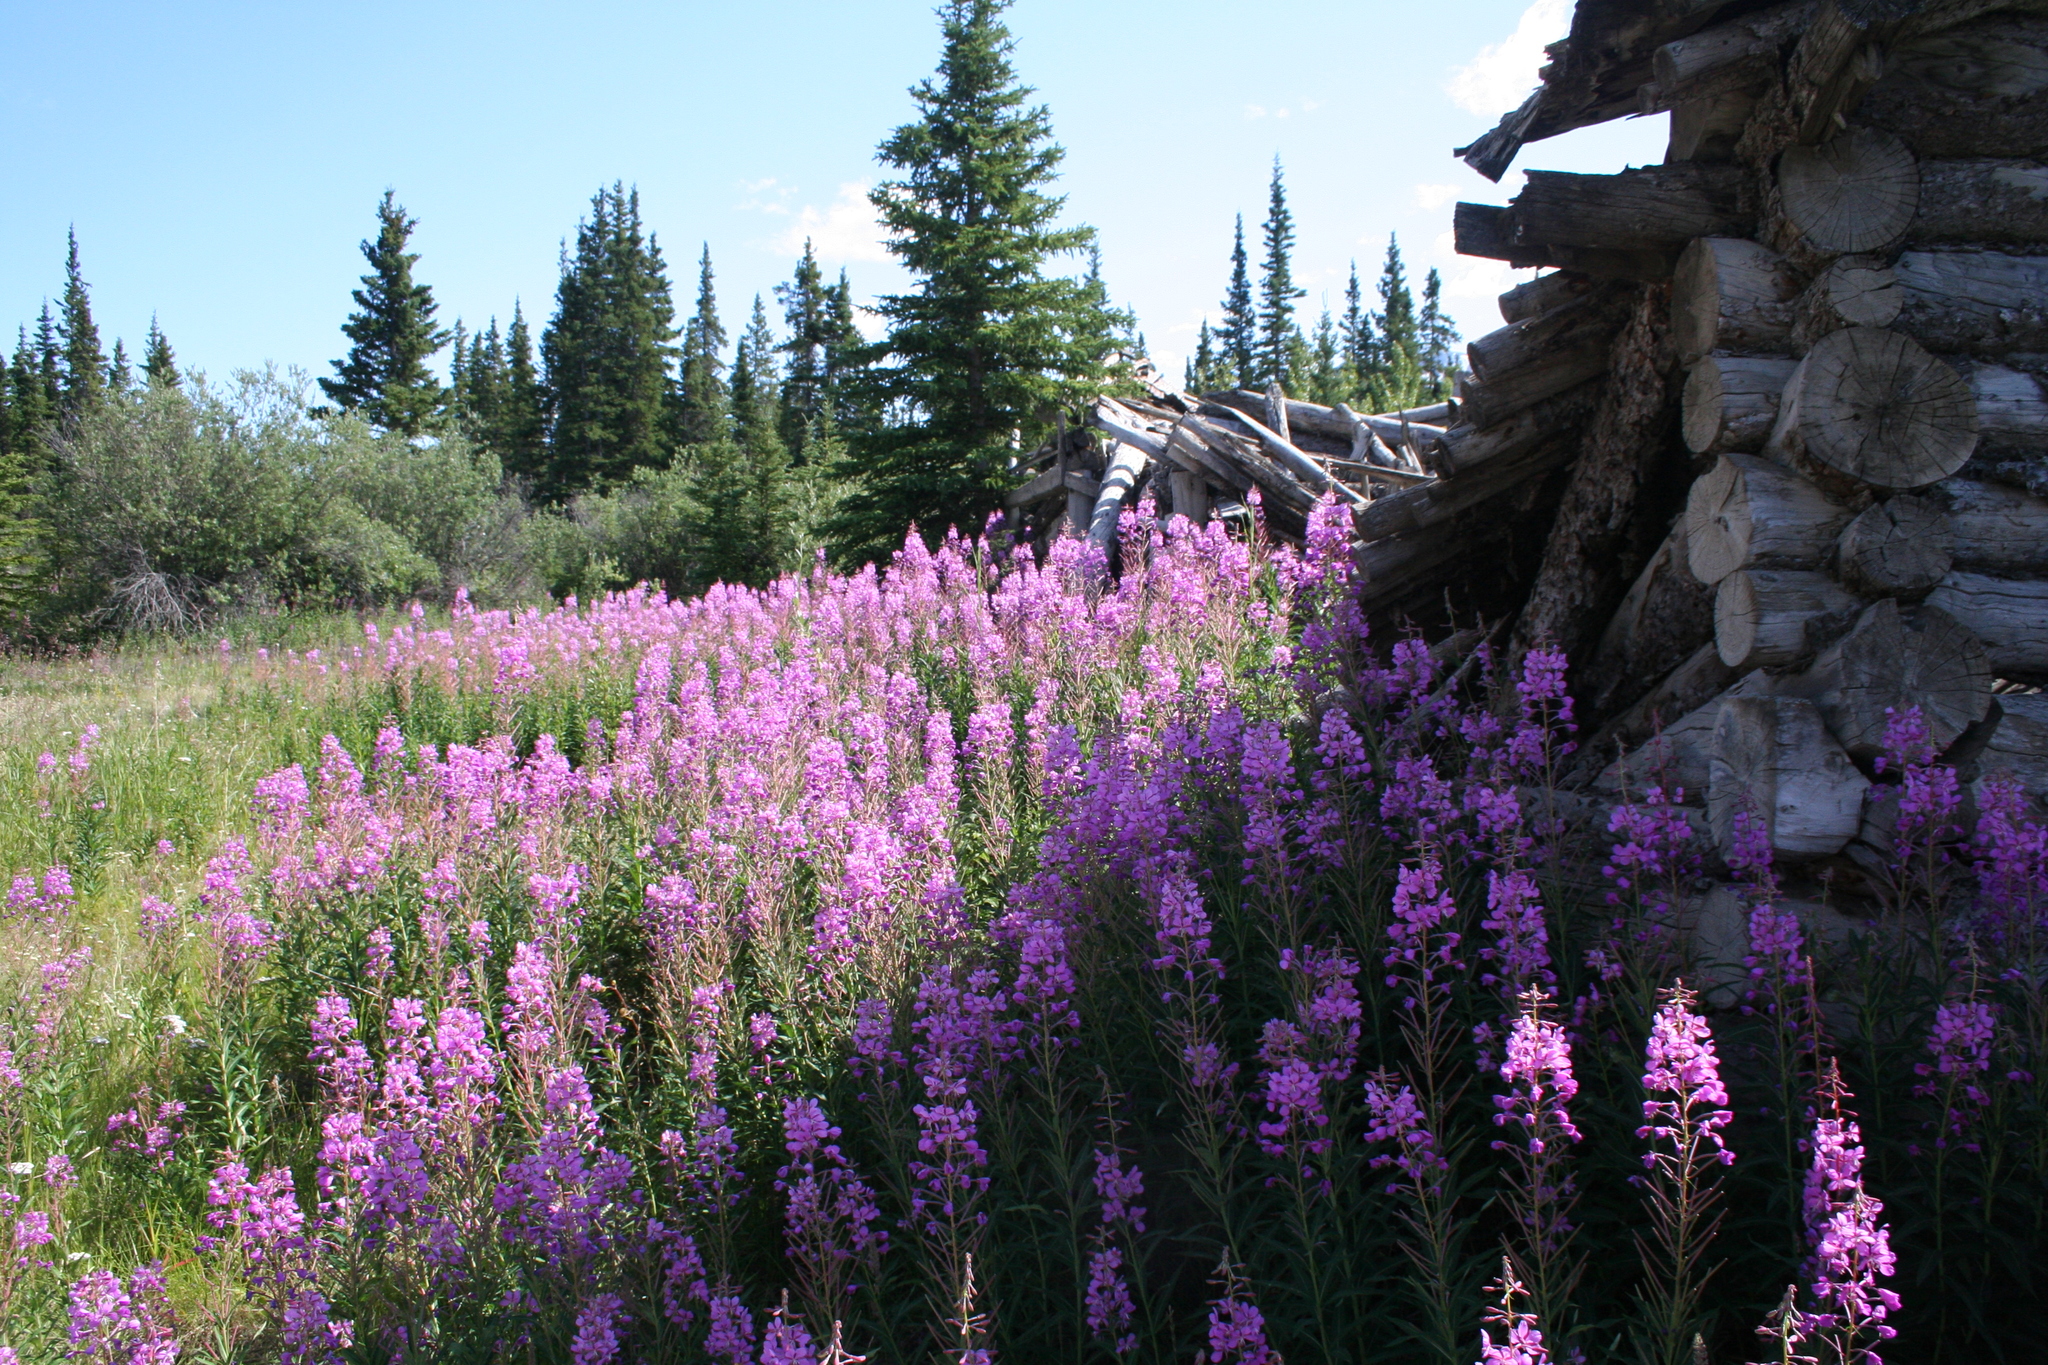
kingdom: Plantae
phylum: Tracheophyta
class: Magnoliopsida
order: Myrtales
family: Onagraceae
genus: Chamaenerion
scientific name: Chamaenerion angustifolium
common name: Fireweed
